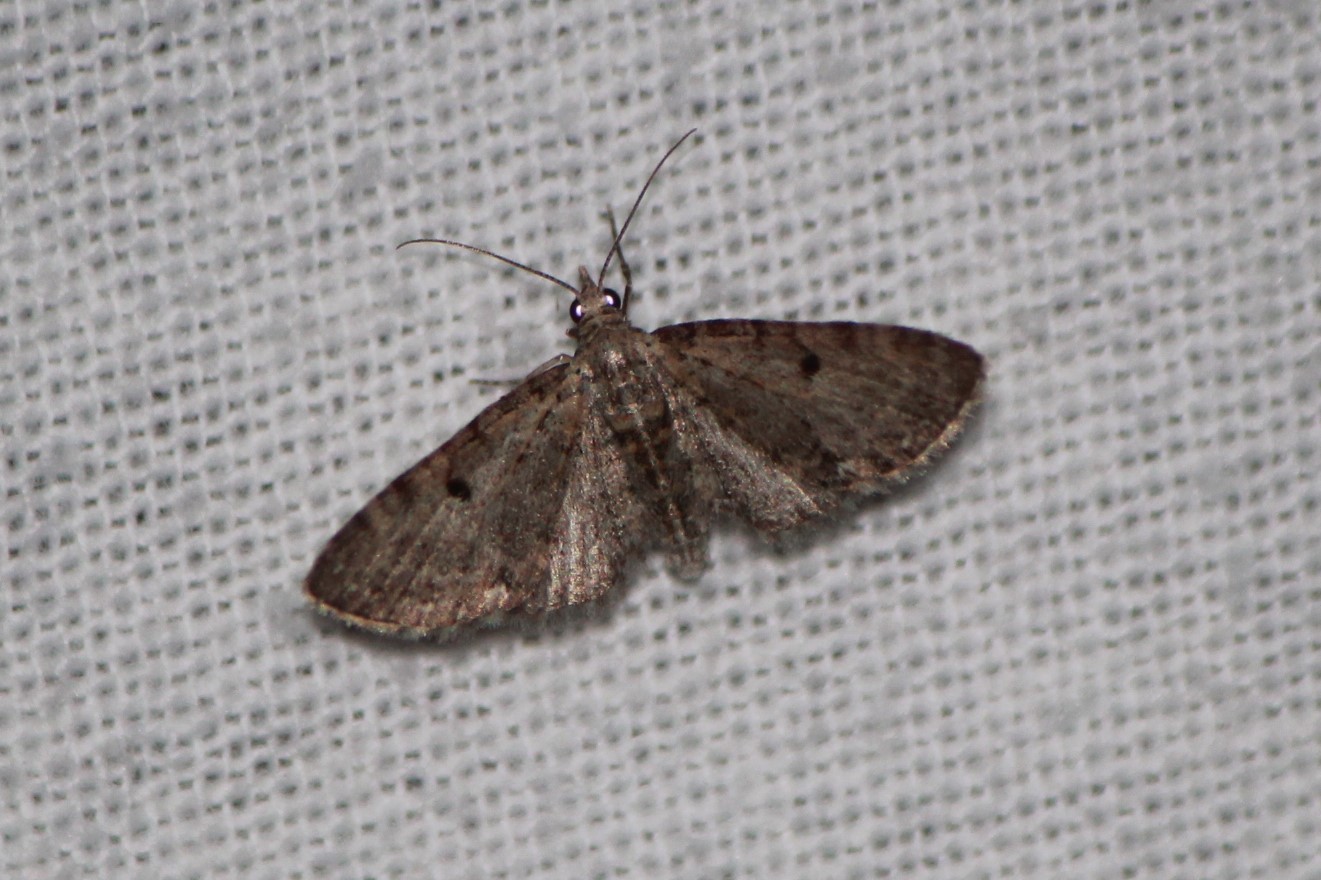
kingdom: Animalia
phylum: Arthropoda
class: Insecta
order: Lepidoptera
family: Geometridae
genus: Eupithecia
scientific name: Eupithecia miserulata
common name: Common eupithecia
